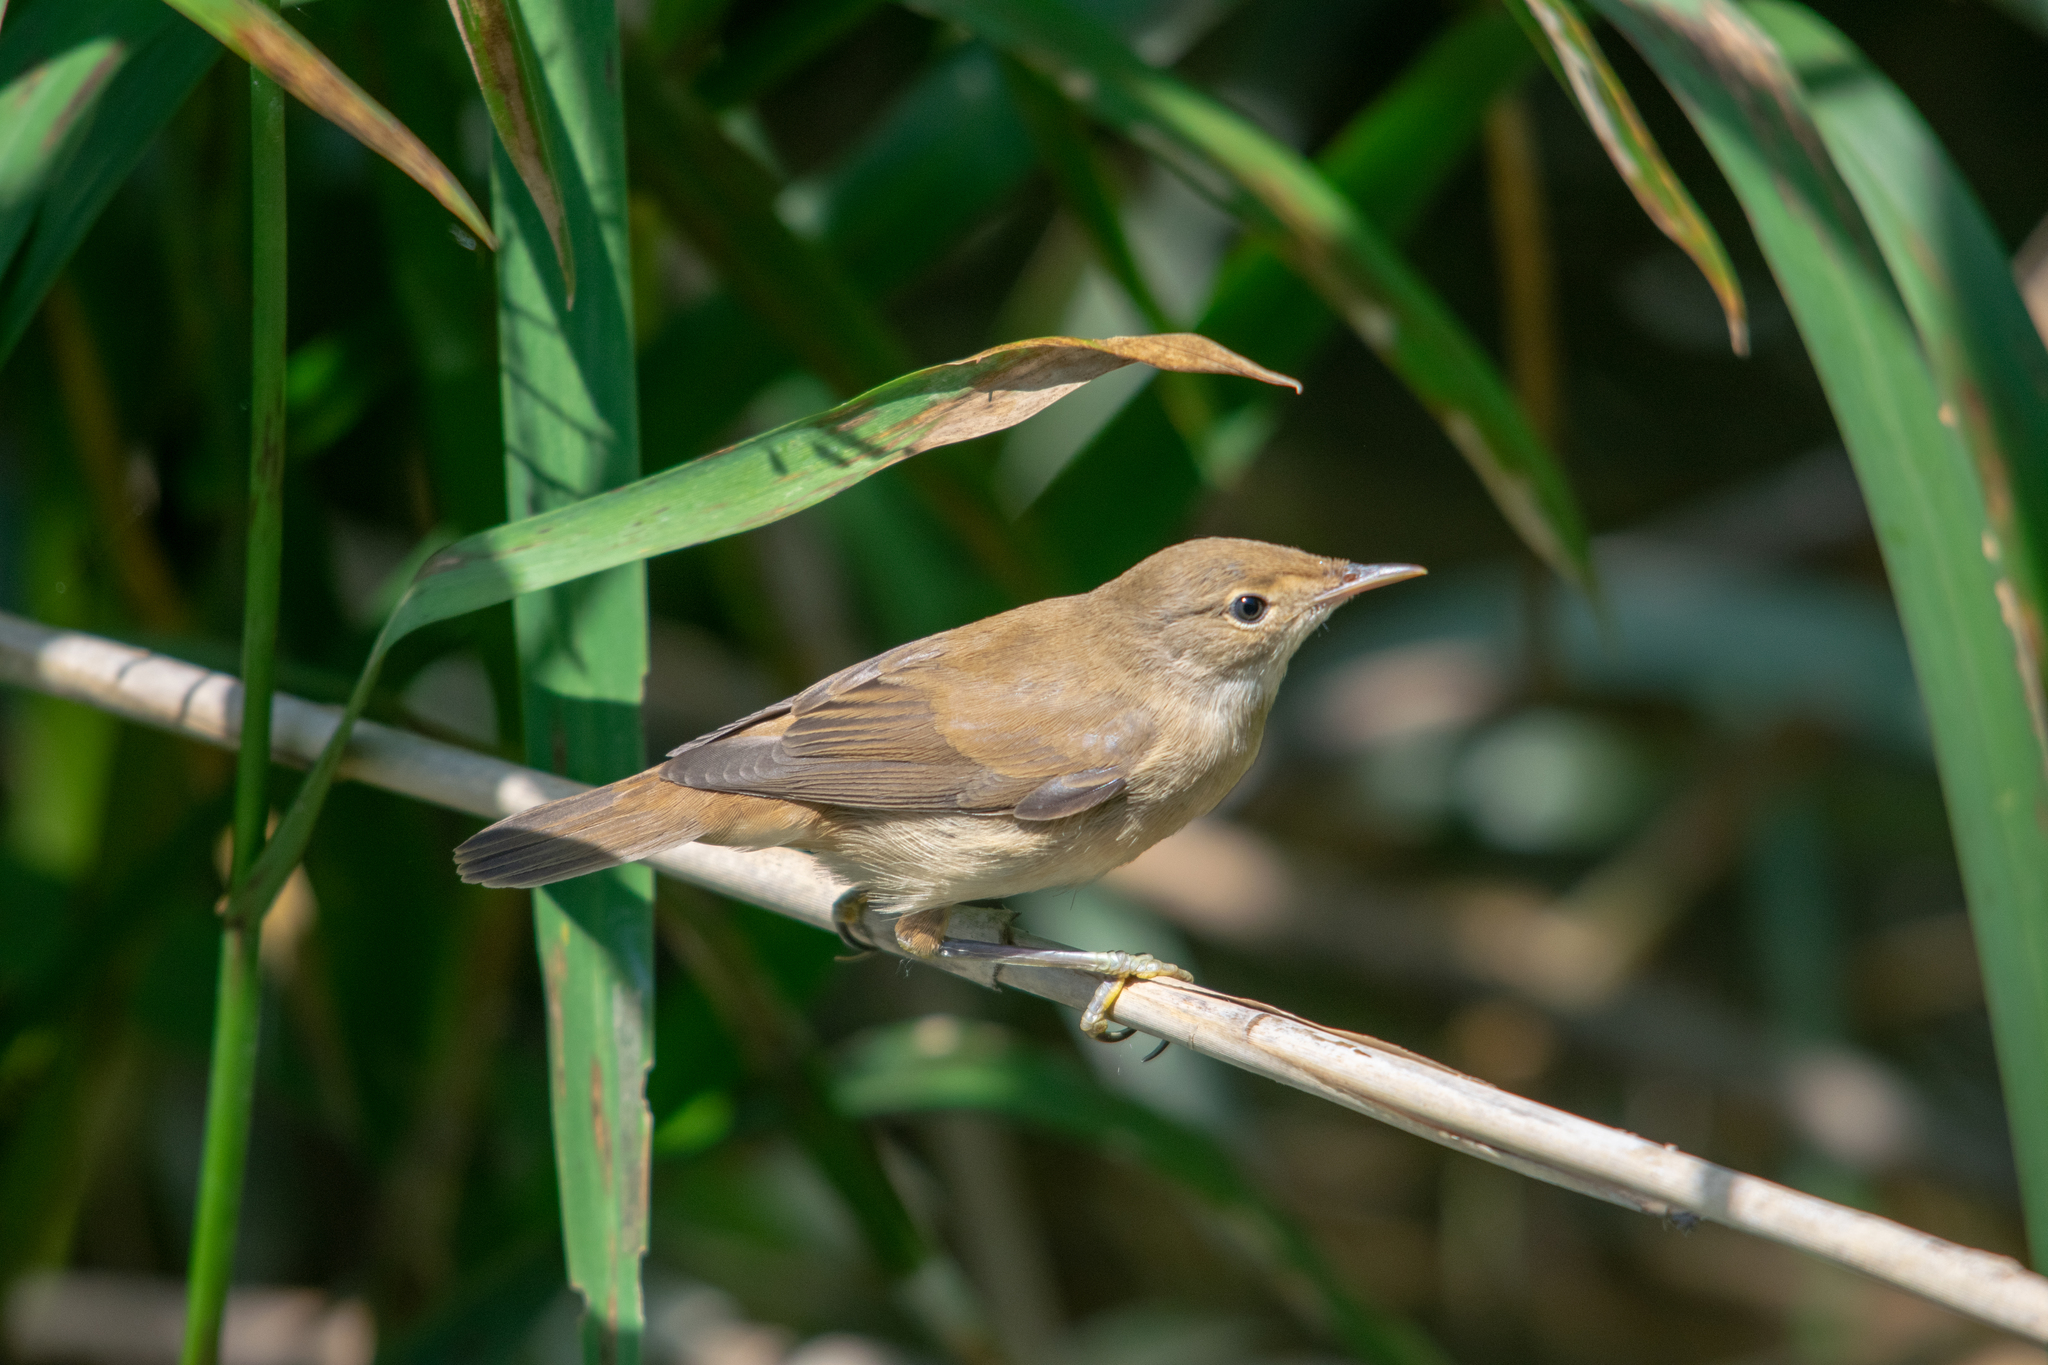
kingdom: Animalia
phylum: Chordata
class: Aves
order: Passeriformes
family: Acrocephalidae
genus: Acrocephalus
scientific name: Acrocephalus scirpaceus
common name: Eurasian reed warbler
